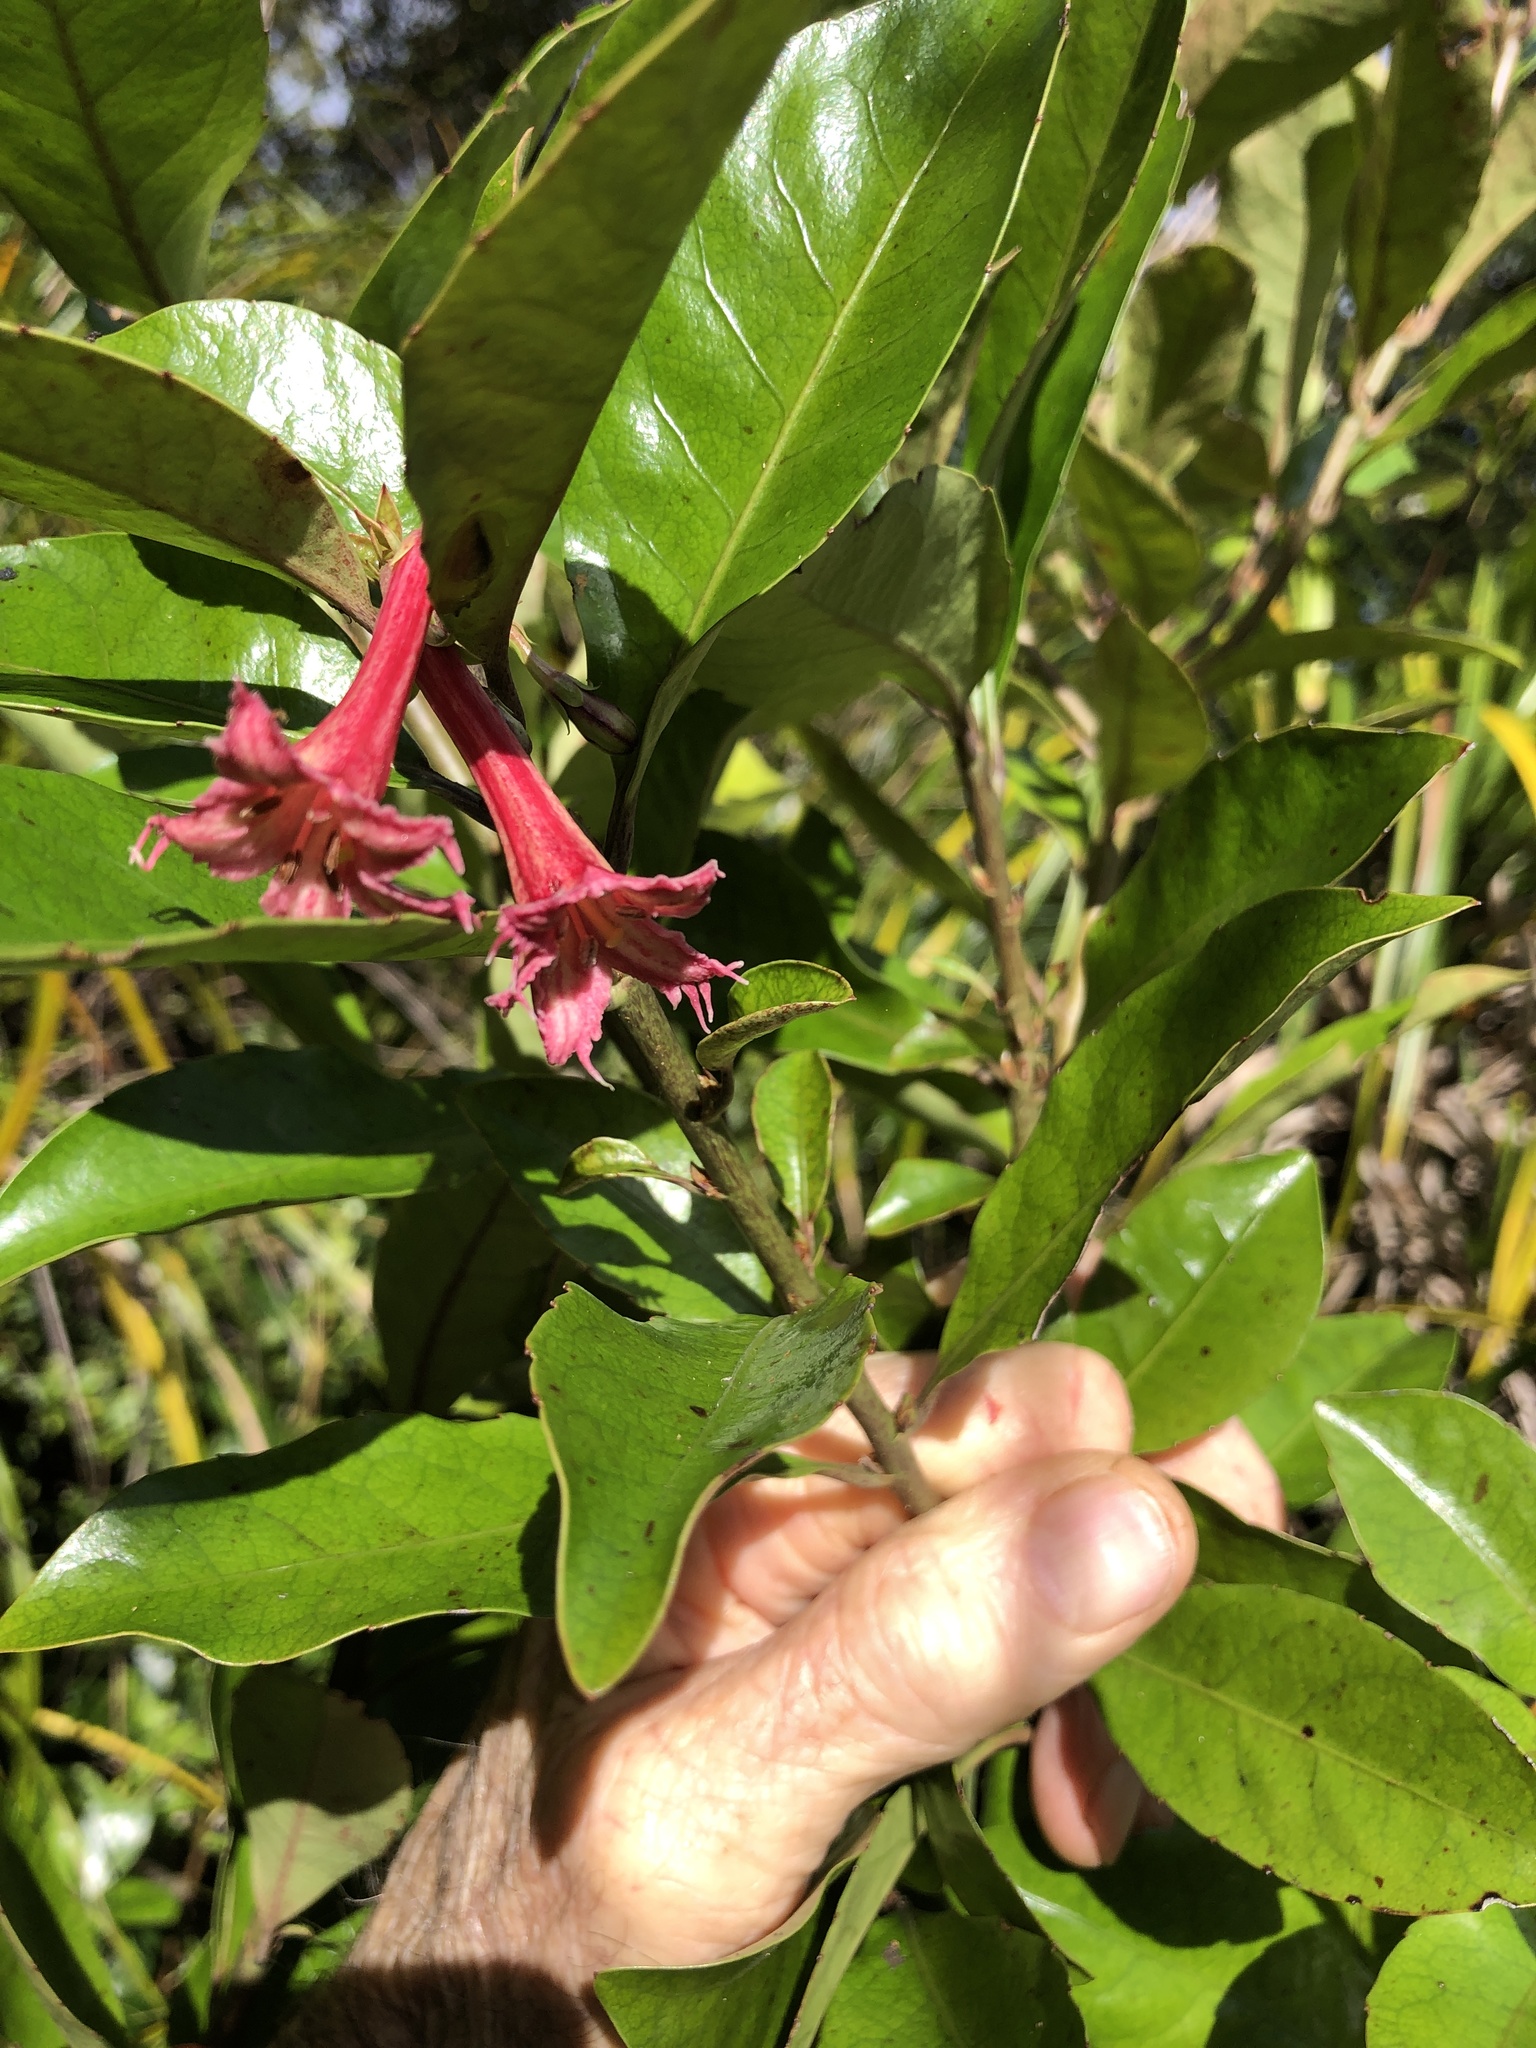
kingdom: Plantae
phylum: Tracheophyta
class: Magnoliopsida
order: Asterales
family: Alseuosmiaceae
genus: Alseuosmia
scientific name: Alseuosmia macrophylla
